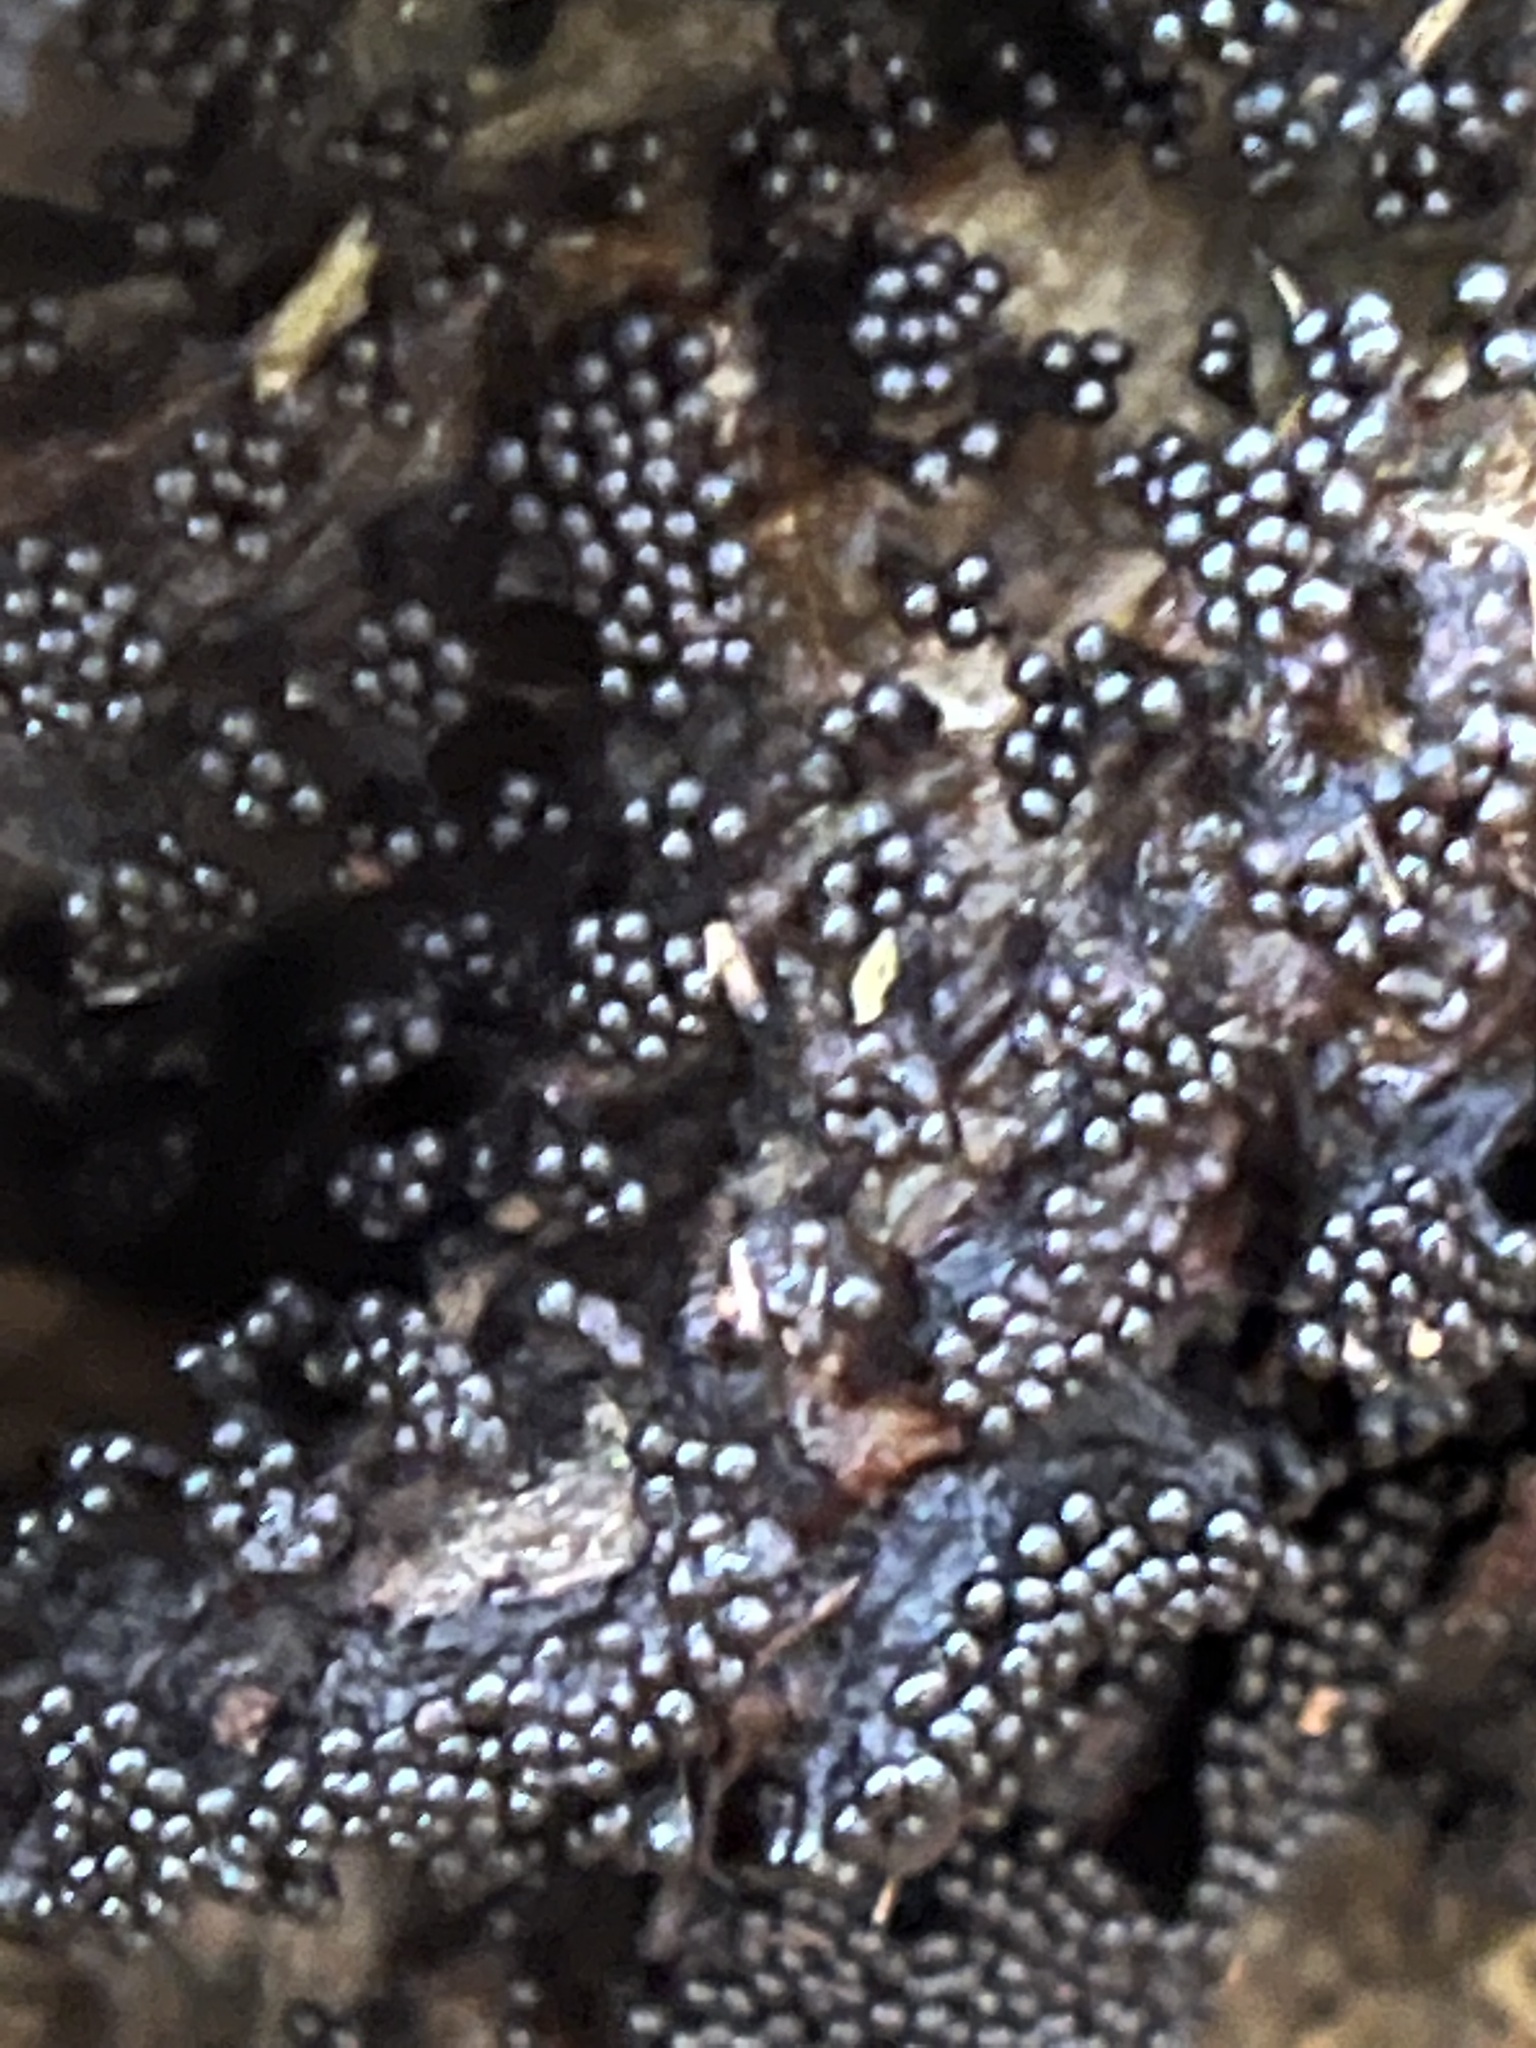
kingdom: Protozoa
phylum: Mycetozoa
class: Myxomycetes
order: Trichiales
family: Trichiaceae
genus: Metatrichia
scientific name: Metatrichia vesparia
